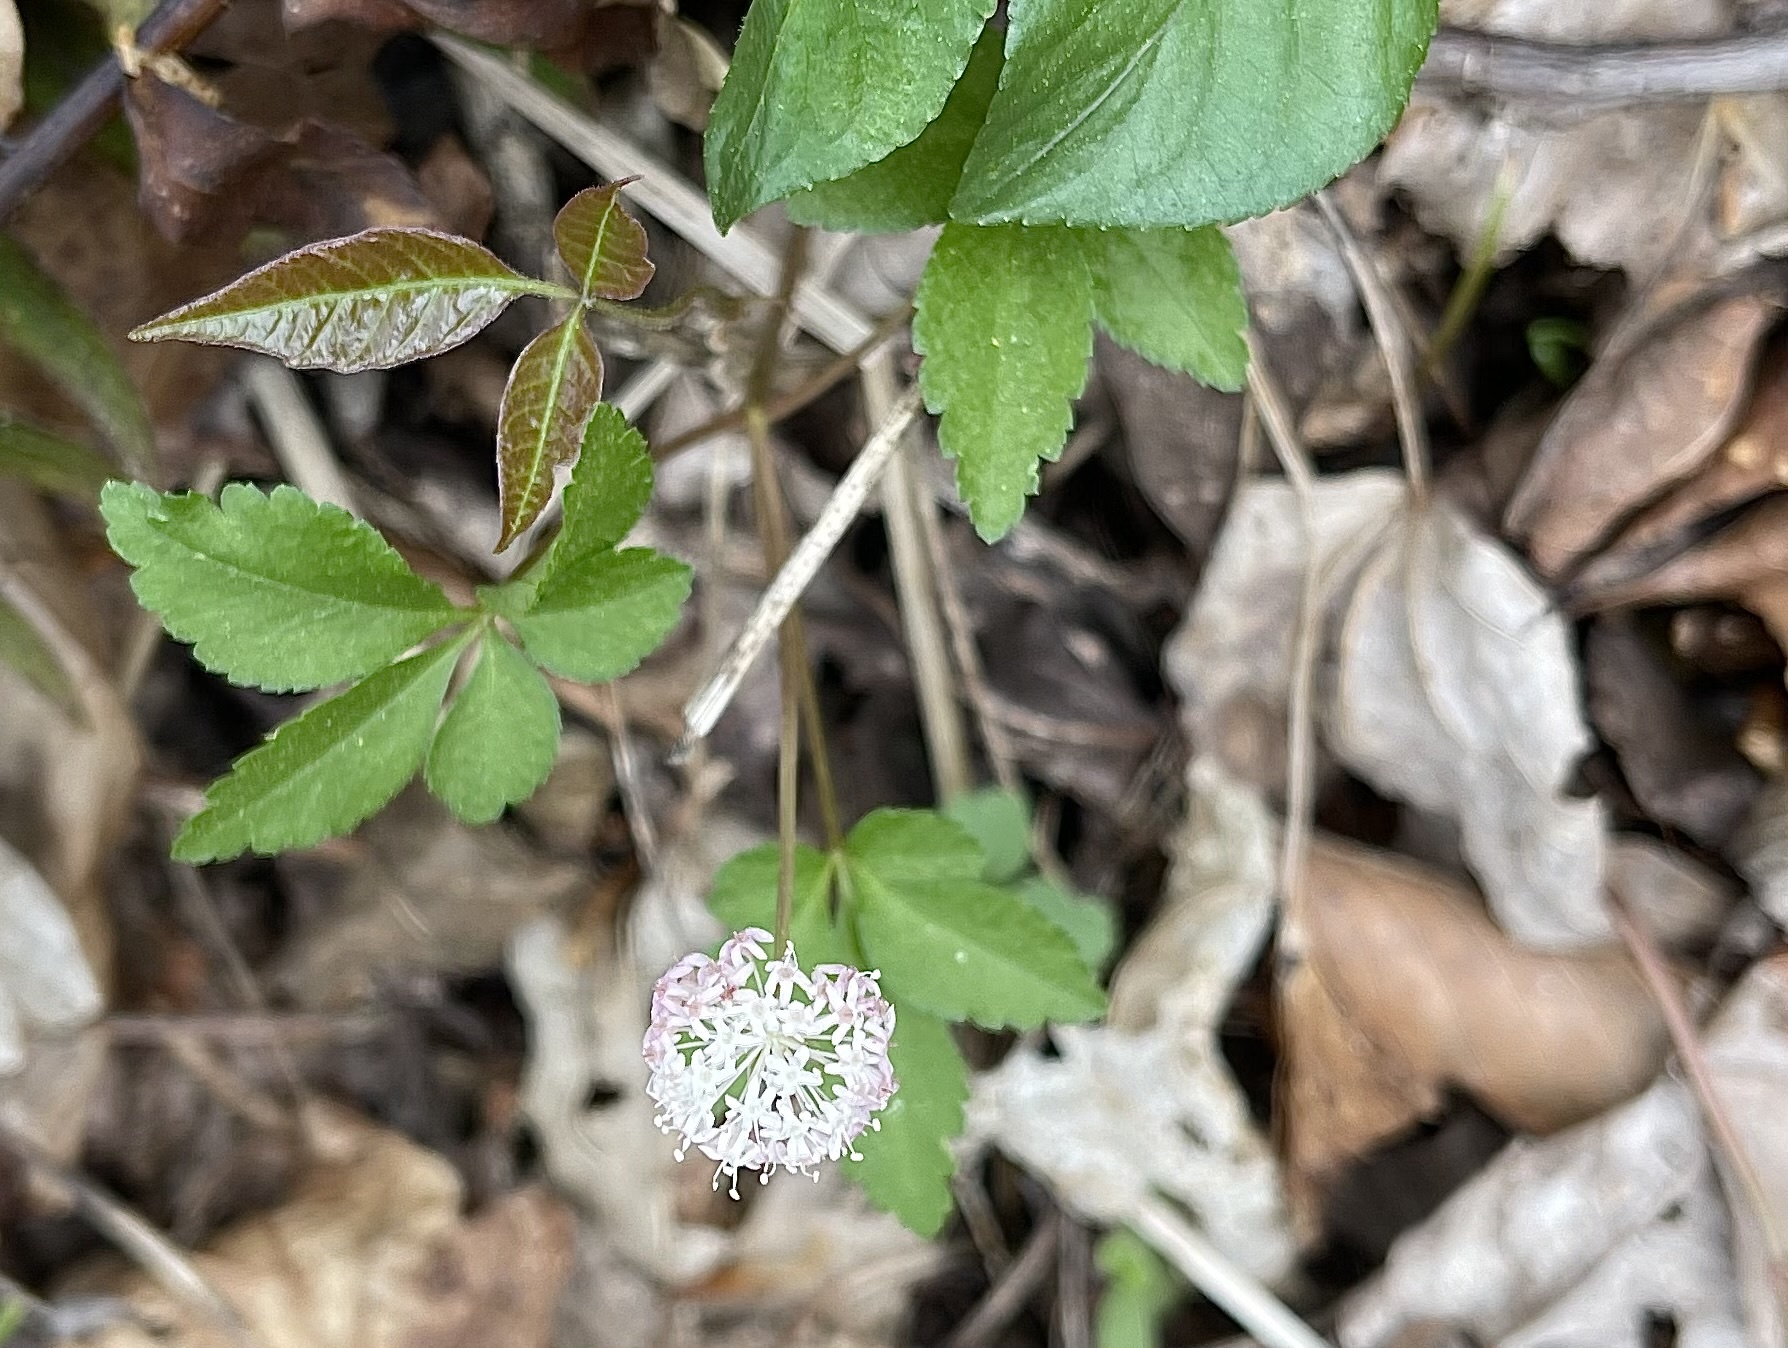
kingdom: Plantae
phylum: Tracheophyta
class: Magnoliopsida
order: Apiales
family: Araliaceae
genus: Panax
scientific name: Panax trifolius
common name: Dwarf ginseng
